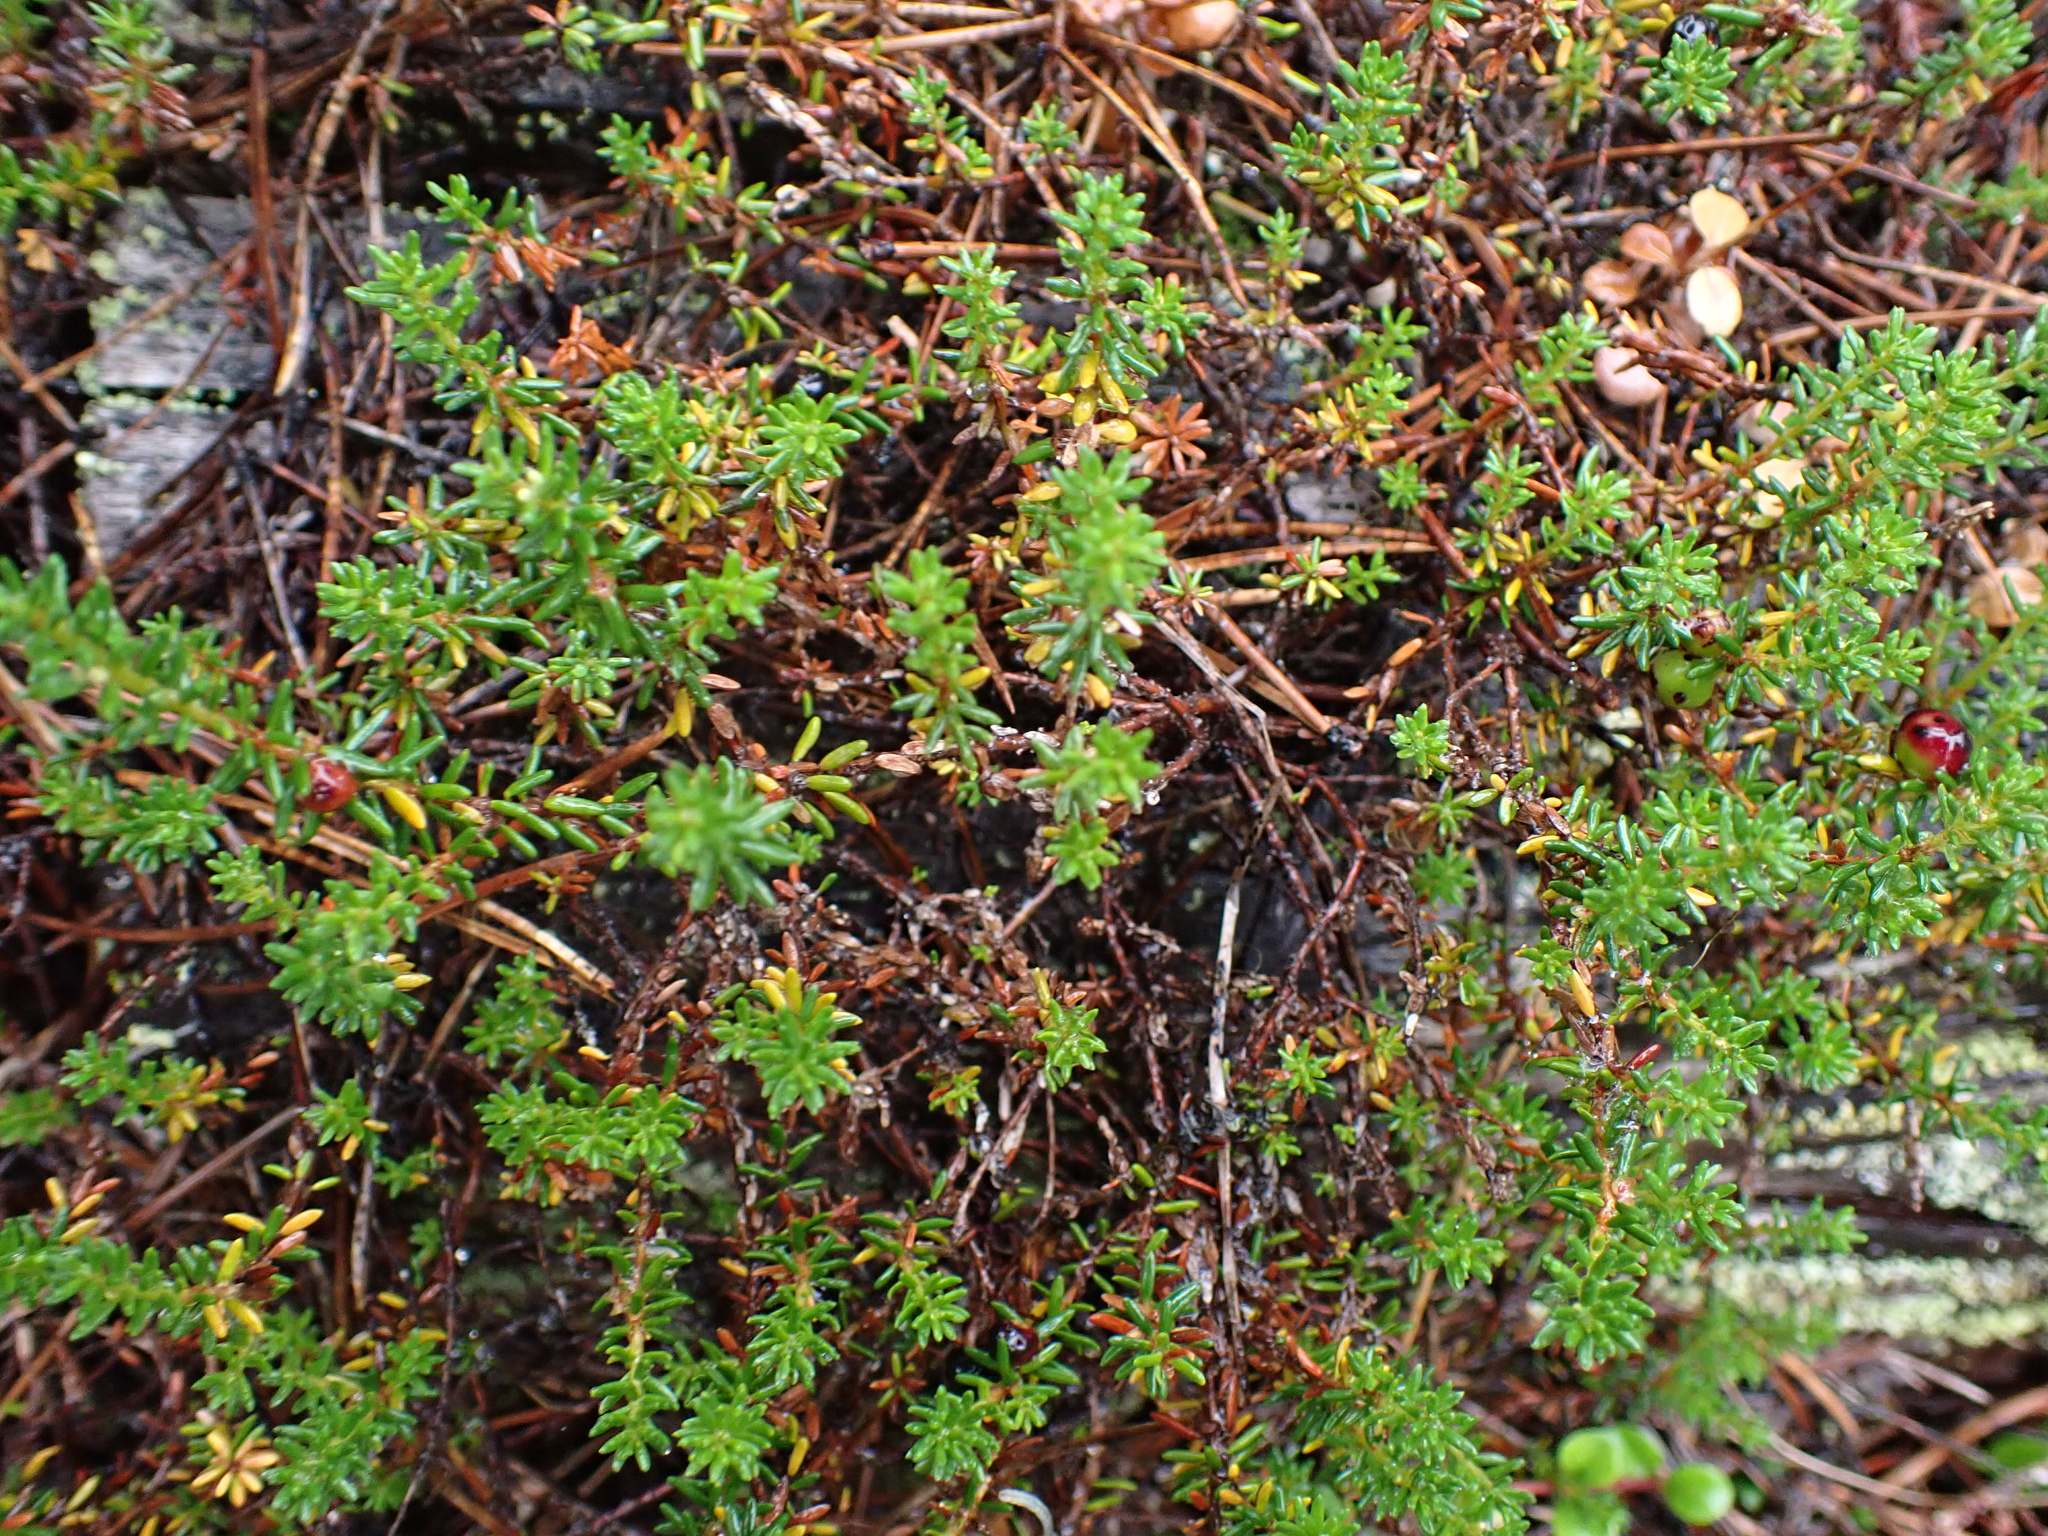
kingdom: Plantae
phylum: Tracheophyta
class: Magnoliopsida
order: Ericales
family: Ericaceae
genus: Empetrum
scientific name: Empetrum nigrum
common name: Black crowberry
